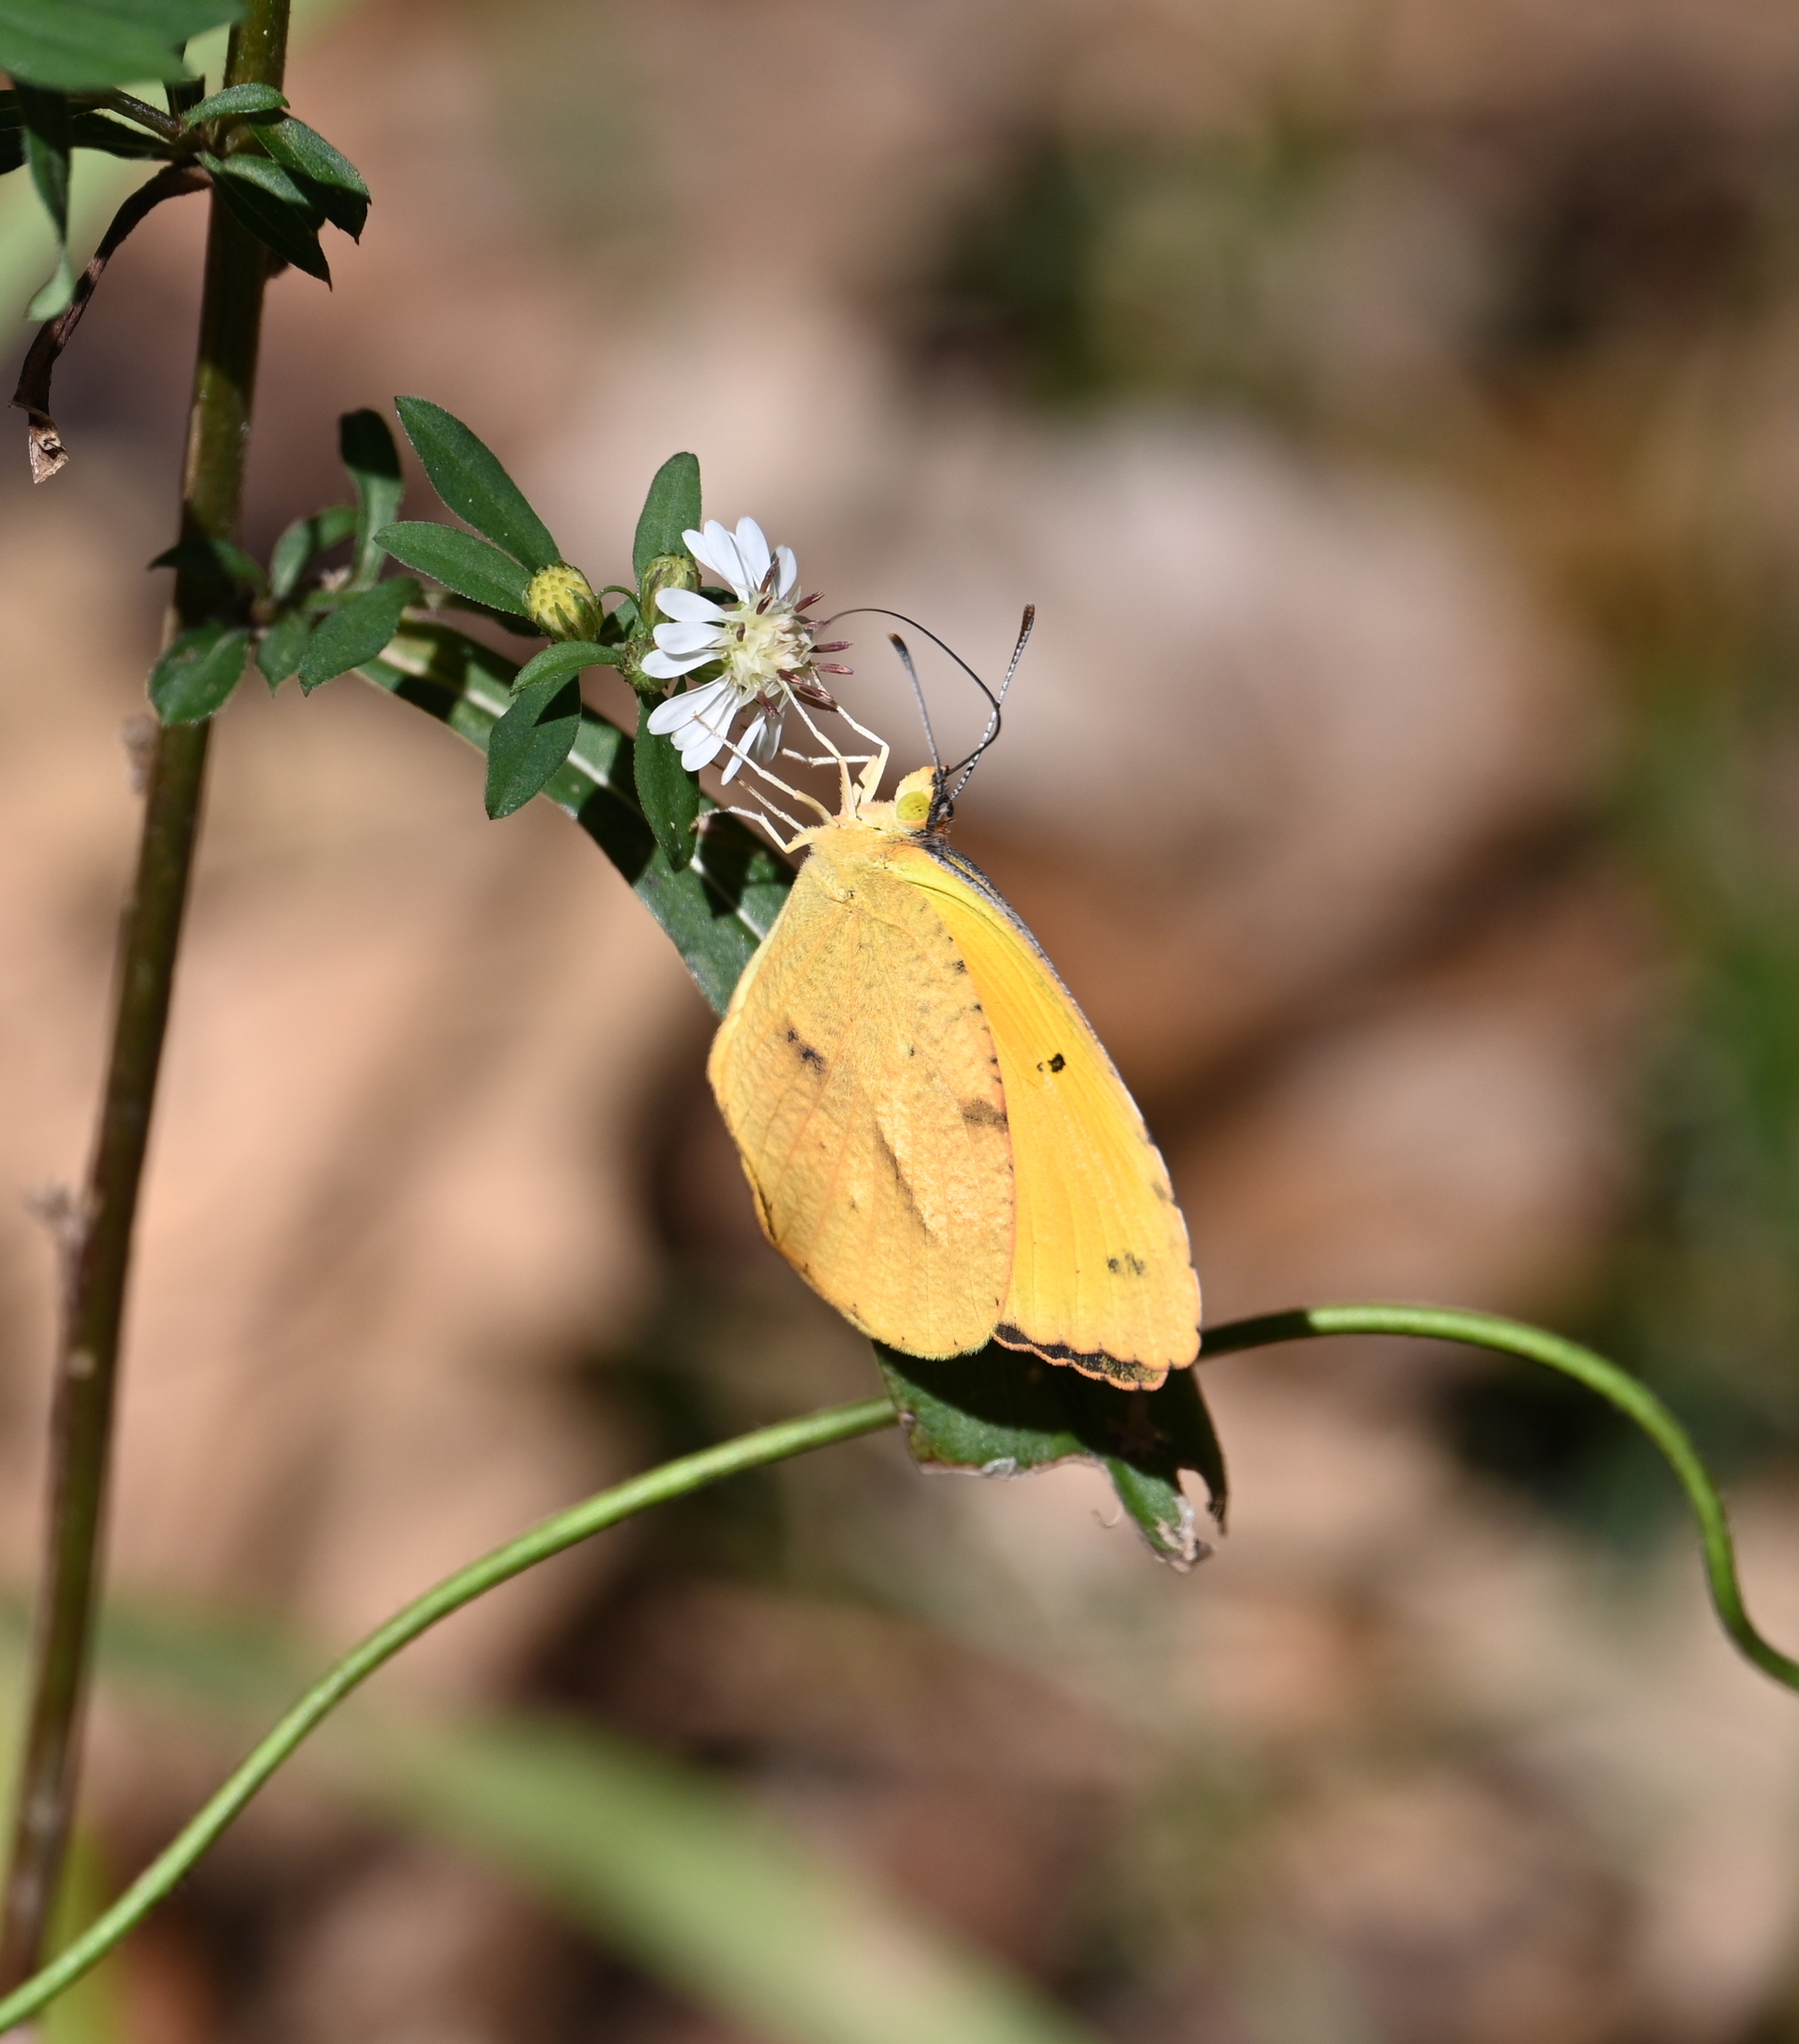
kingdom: Animalia
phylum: Arthropoda
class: Insecta
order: Lepidoptera
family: Pieridae
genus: Abaeis
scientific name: Abaeis nicippe
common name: Sleepy orange
